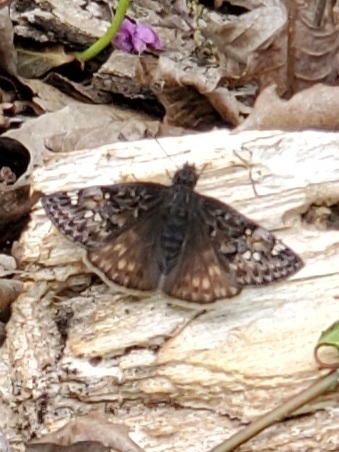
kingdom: Animalia
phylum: Arthropoda
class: Insecta
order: Lepidoptera
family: Hesperiidae
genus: Erynnis
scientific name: Erynnis juvenalis
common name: Juvenal's duskywing
